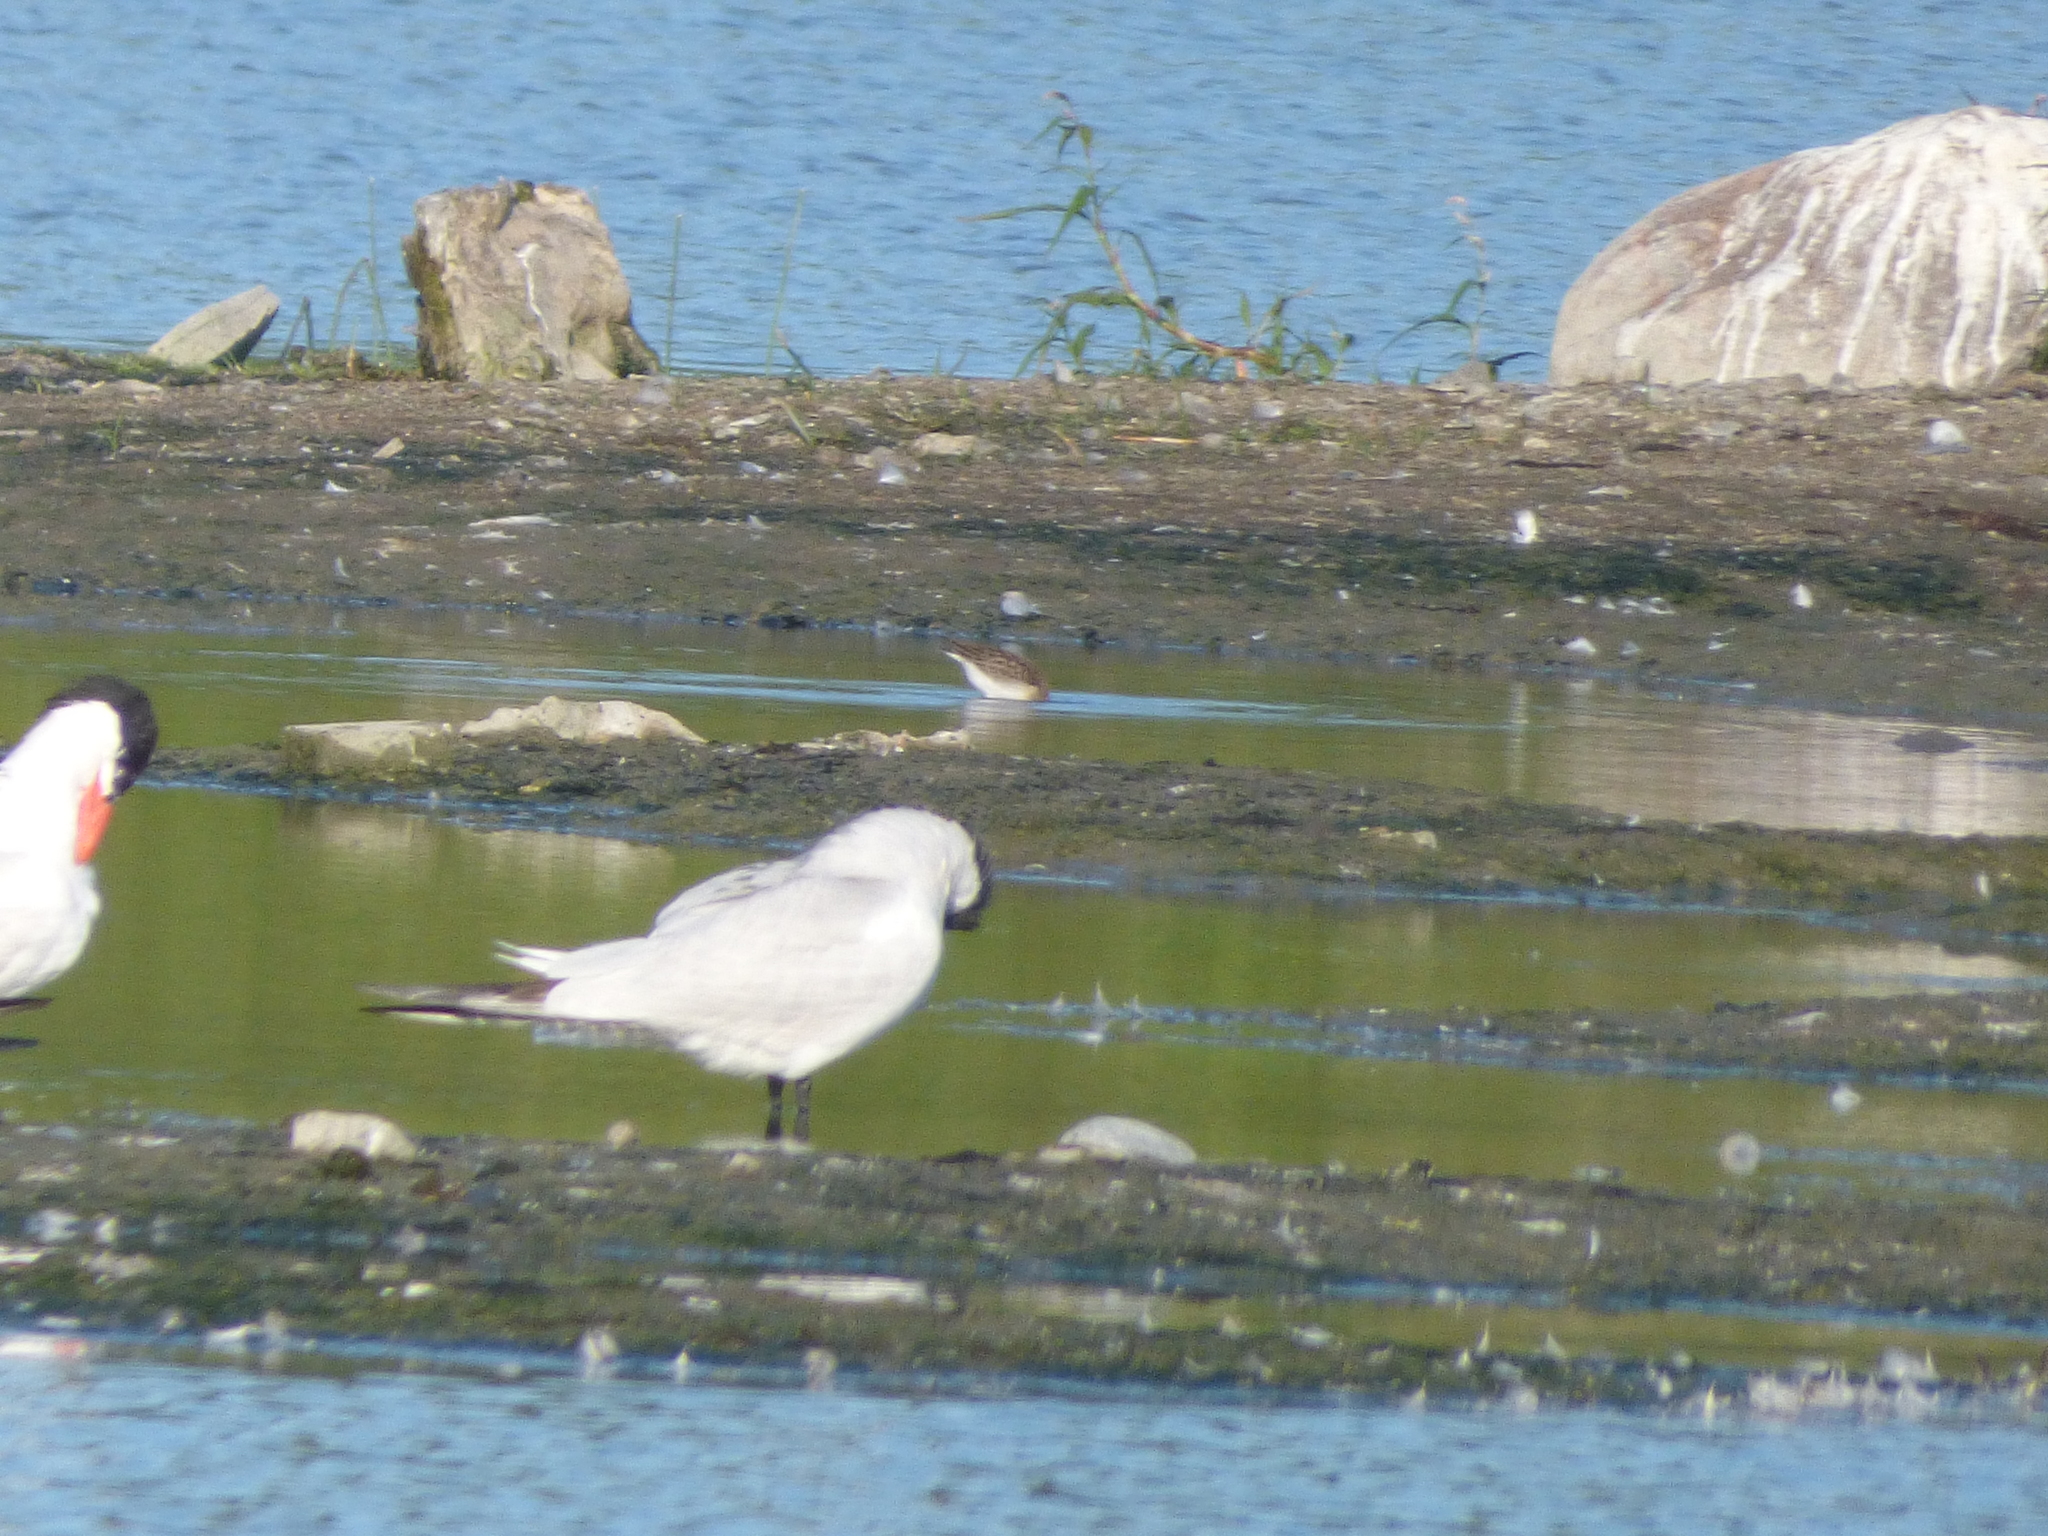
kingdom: Animalia
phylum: Chordata
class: Aves
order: Charadriiformes
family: Laridae
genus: Hydroprogne
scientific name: Hydroprogne caspia
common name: Caspian tern
